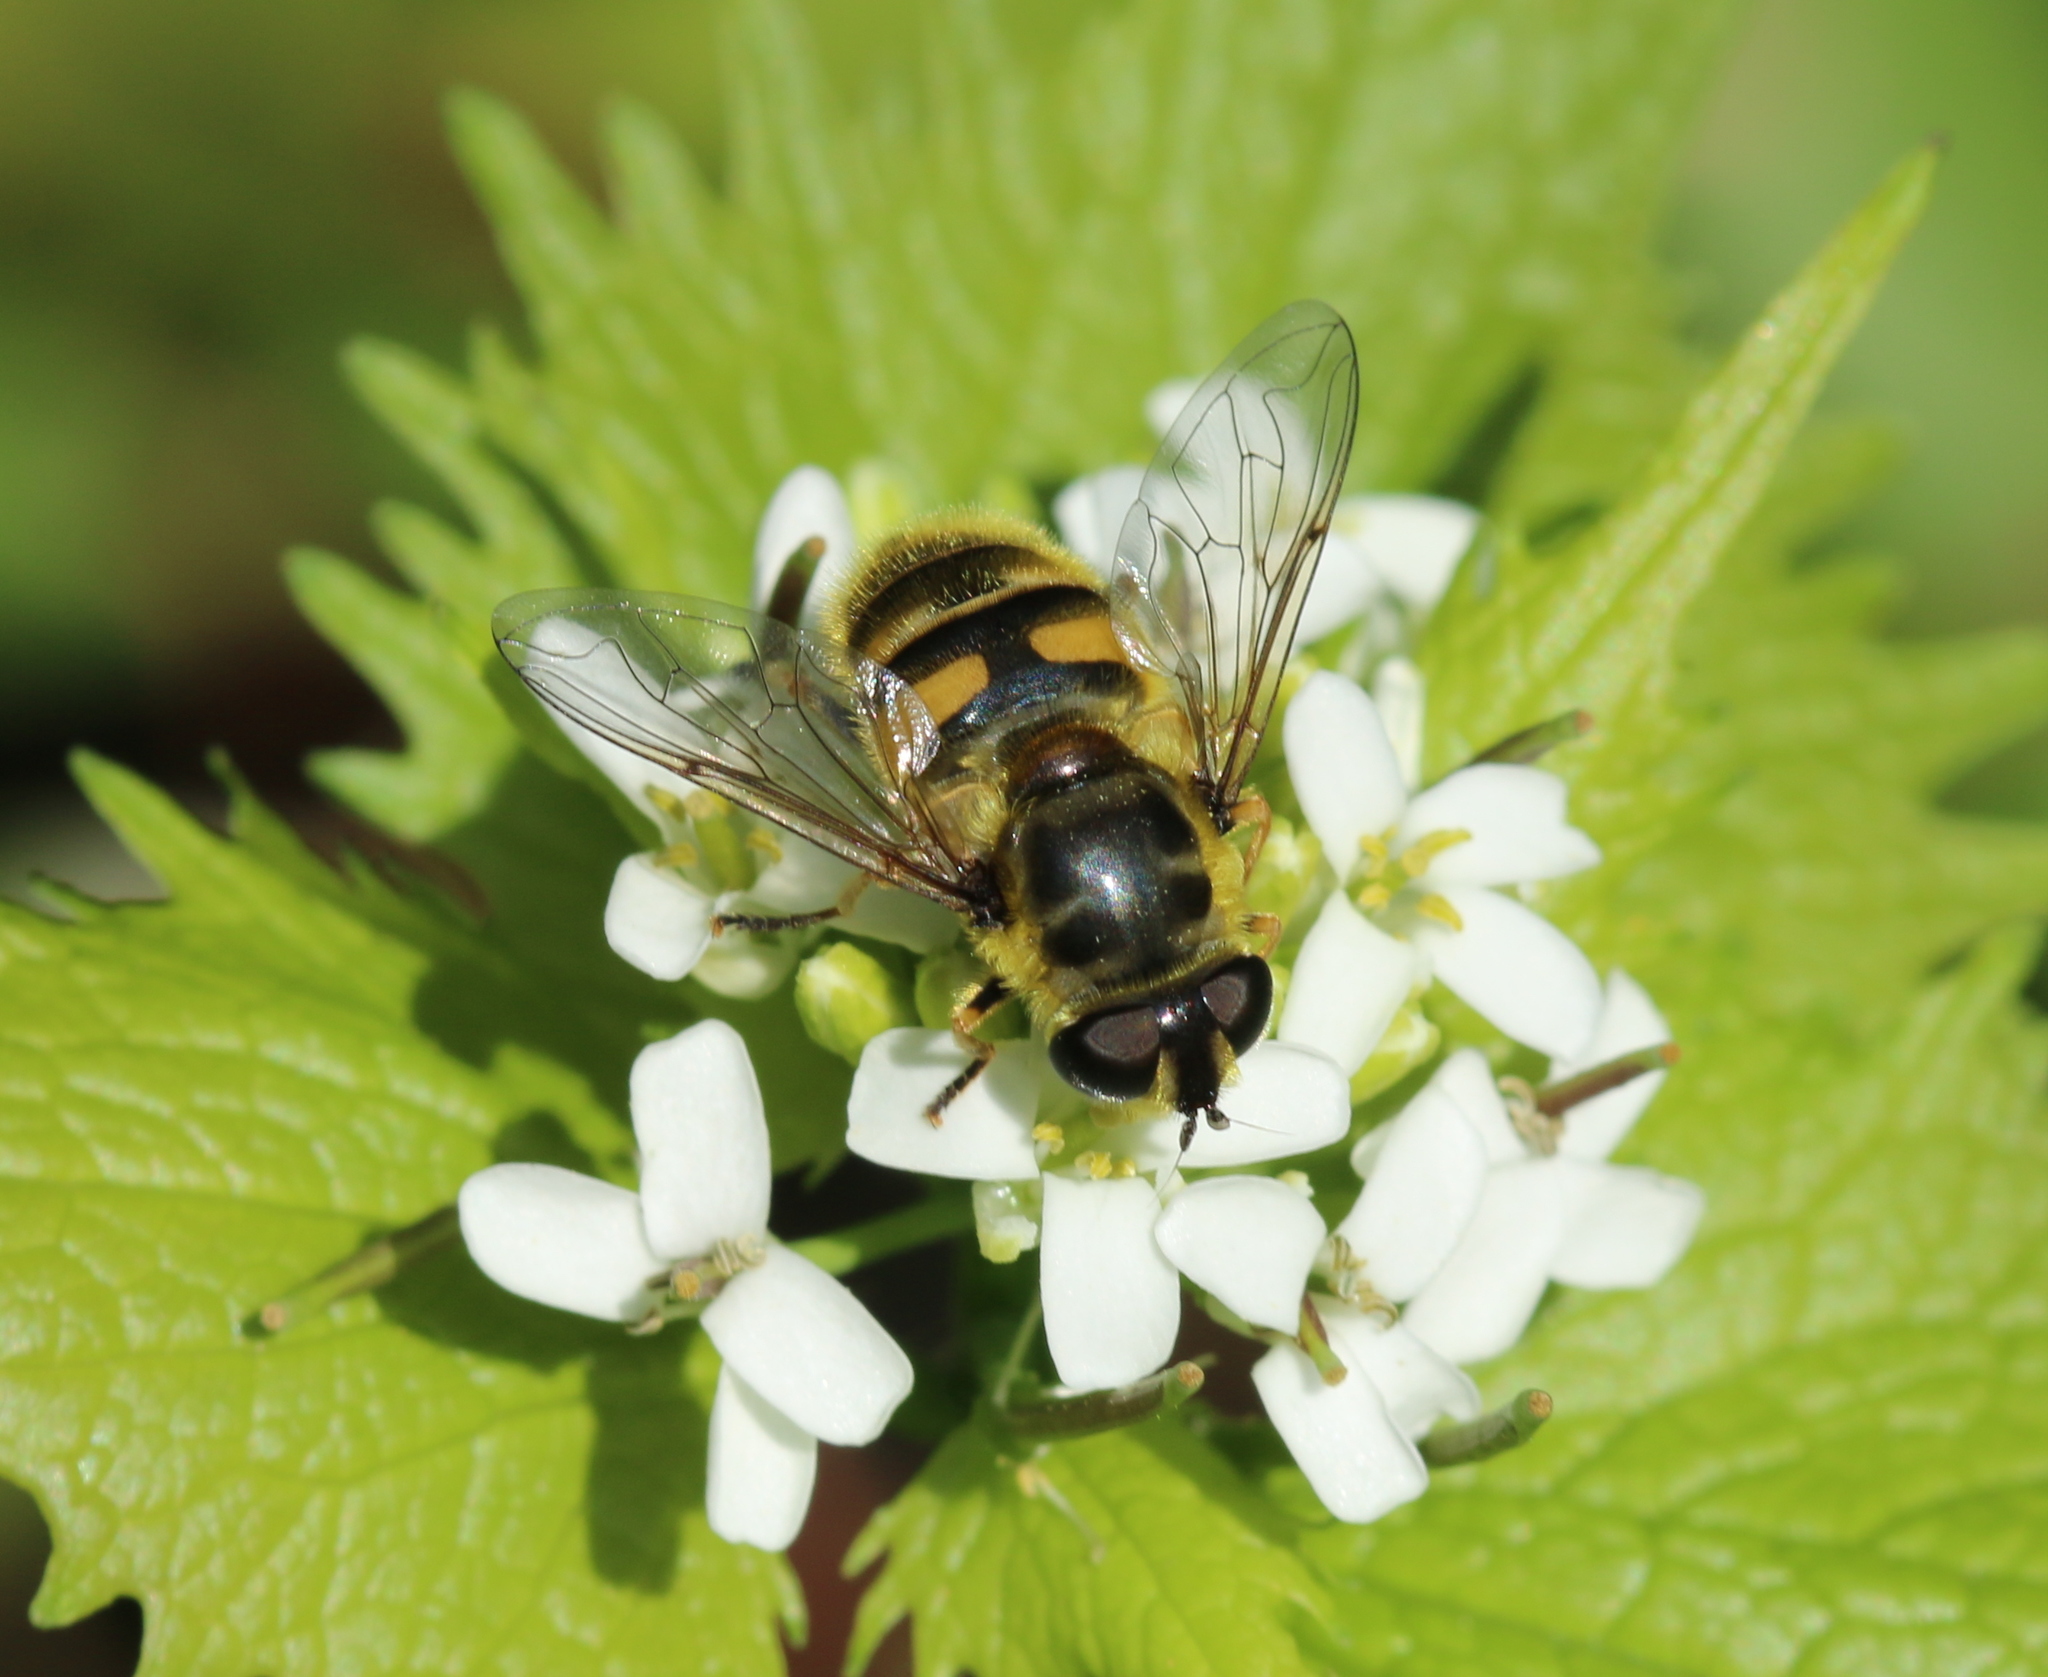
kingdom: Animalia
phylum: Arthropoda
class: Insecta
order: Diptera
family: Syrphidae
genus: Myathropa
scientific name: Myathropa florea
